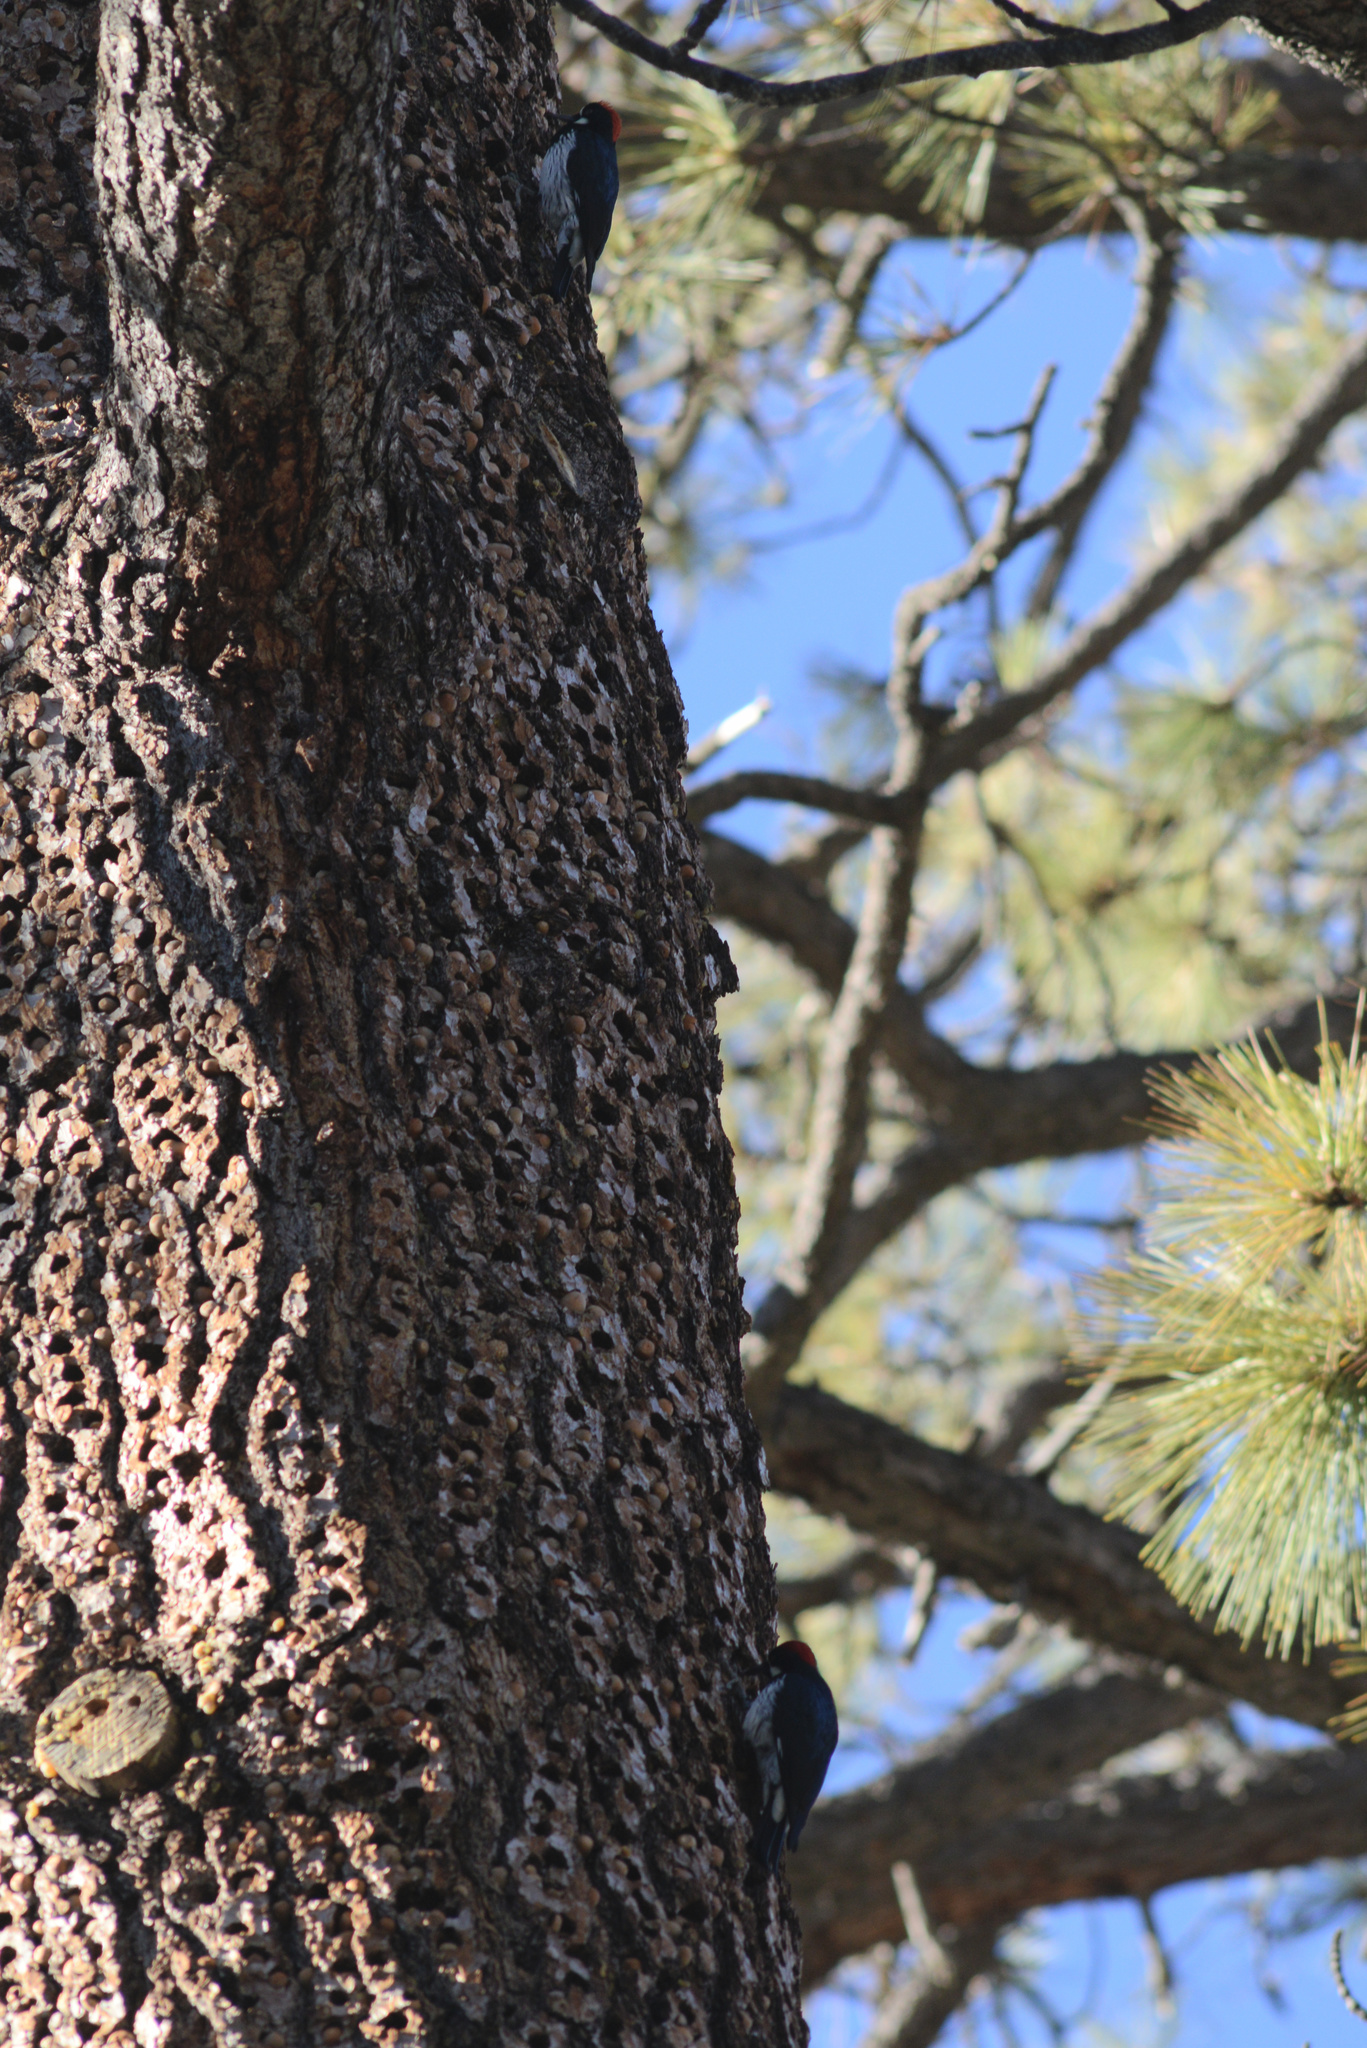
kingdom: Animalia
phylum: Chordata
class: Aves
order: Piciformes
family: Picidae
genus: Melanerpes
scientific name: Melanerpes formicivorus
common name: Acorn woodpecker
